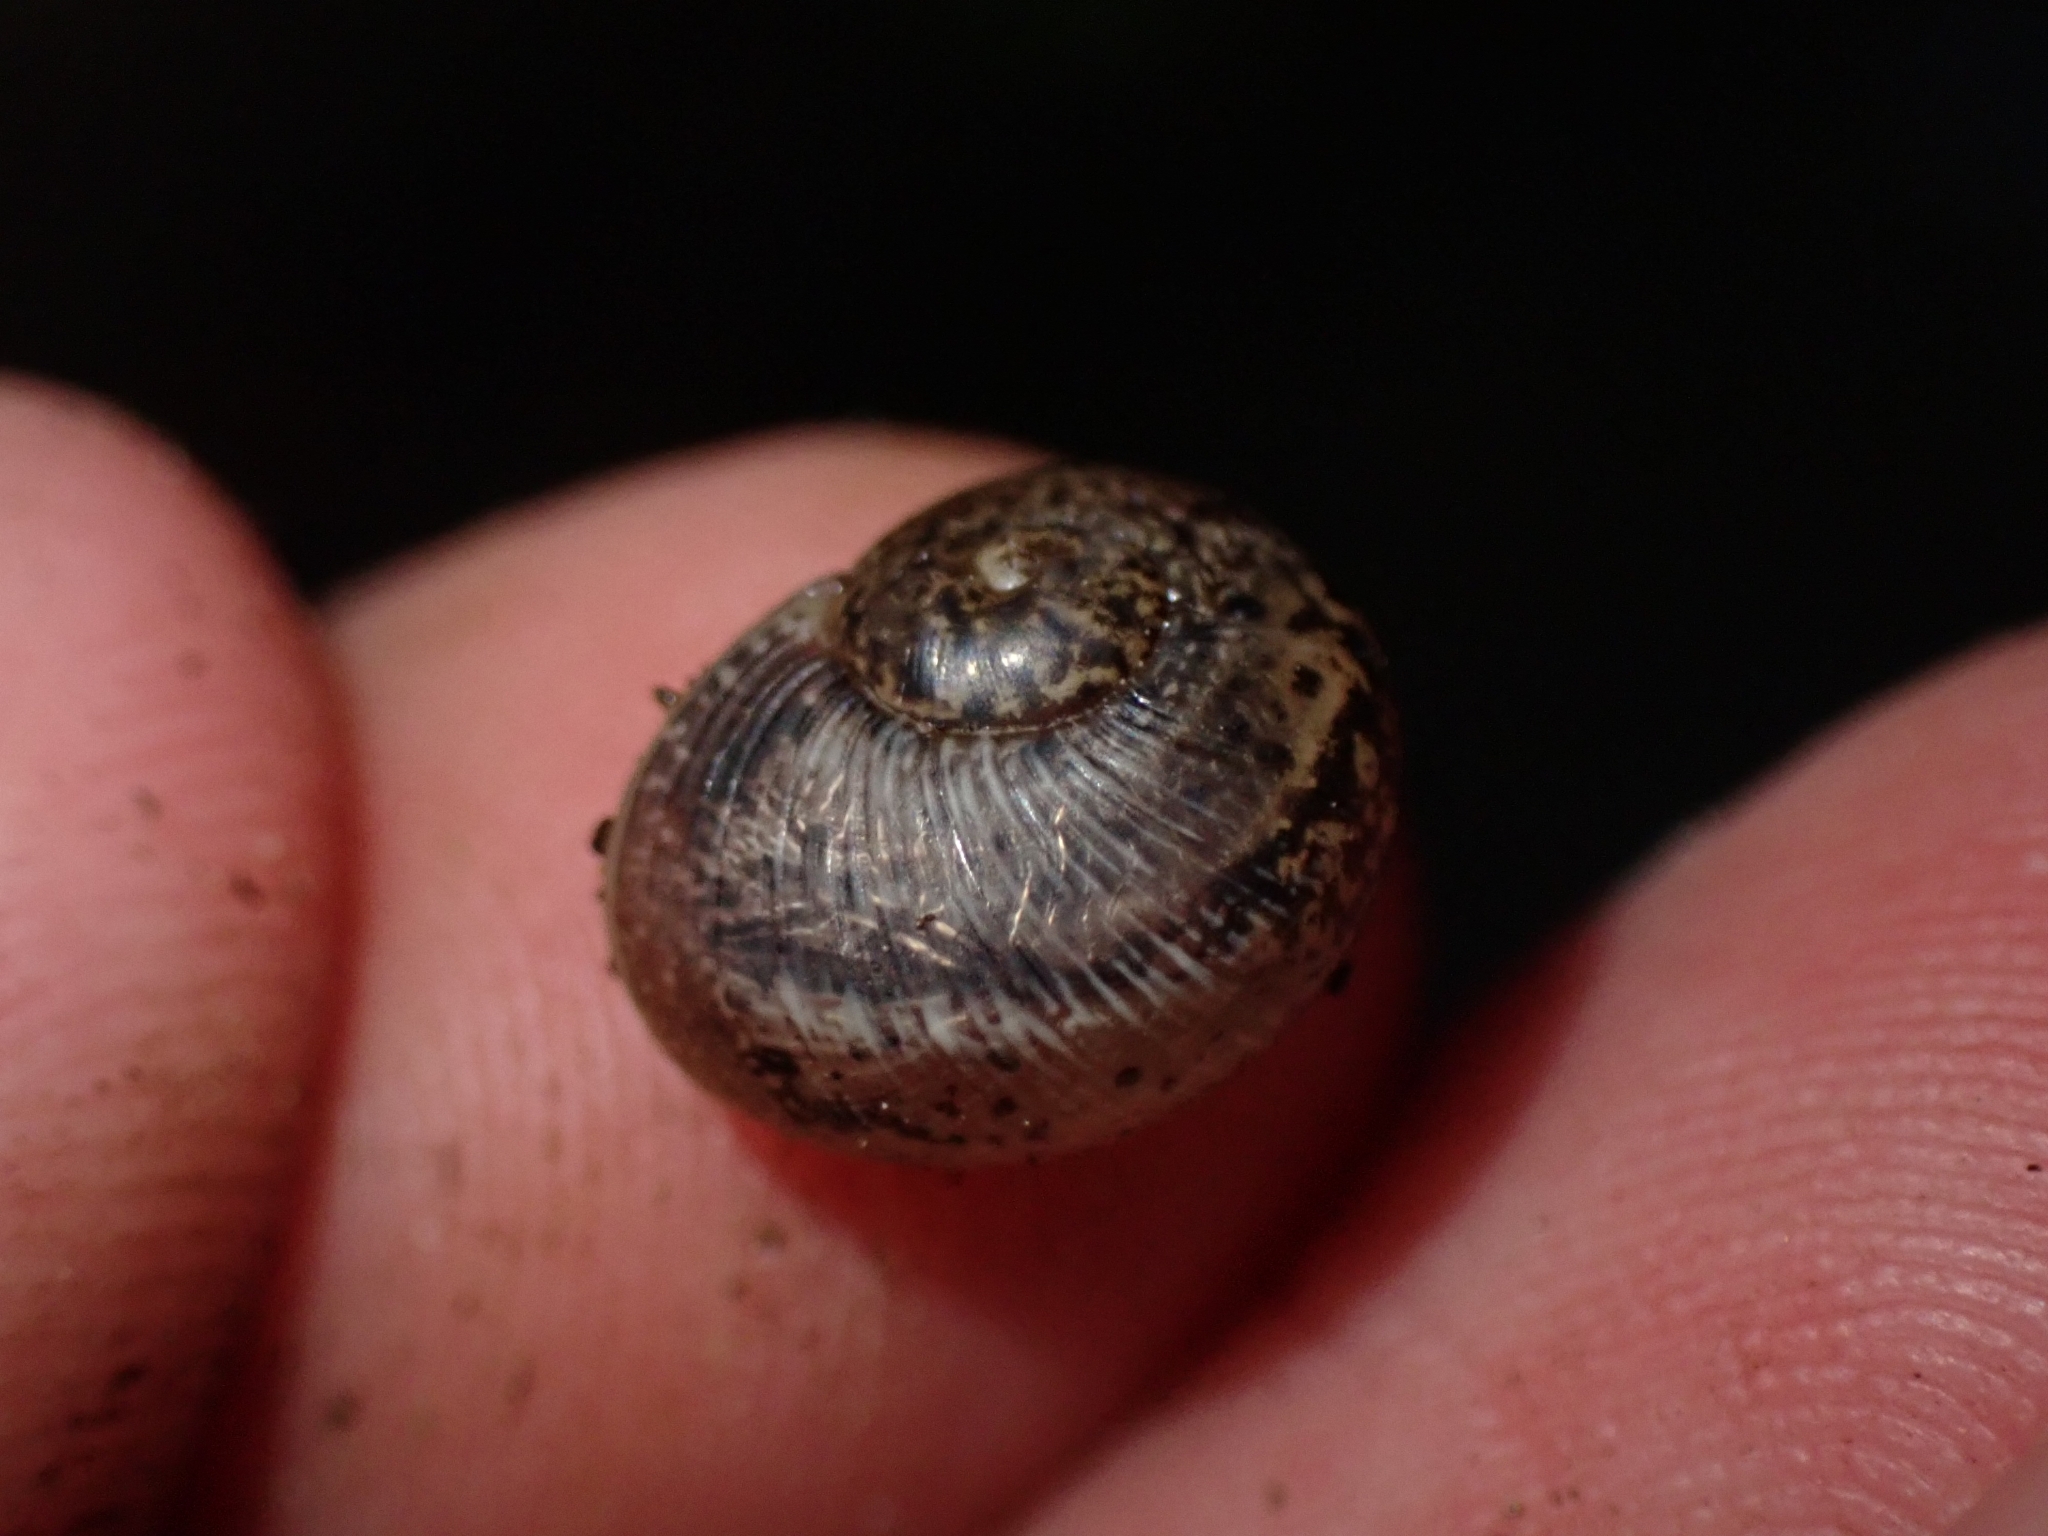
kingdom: Animalia
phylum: Mollusca
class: Gastropoda
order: Stylommatophora
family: Helicidae
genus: Cornu
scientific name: Cornu aspersum
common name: Brown garden snail
